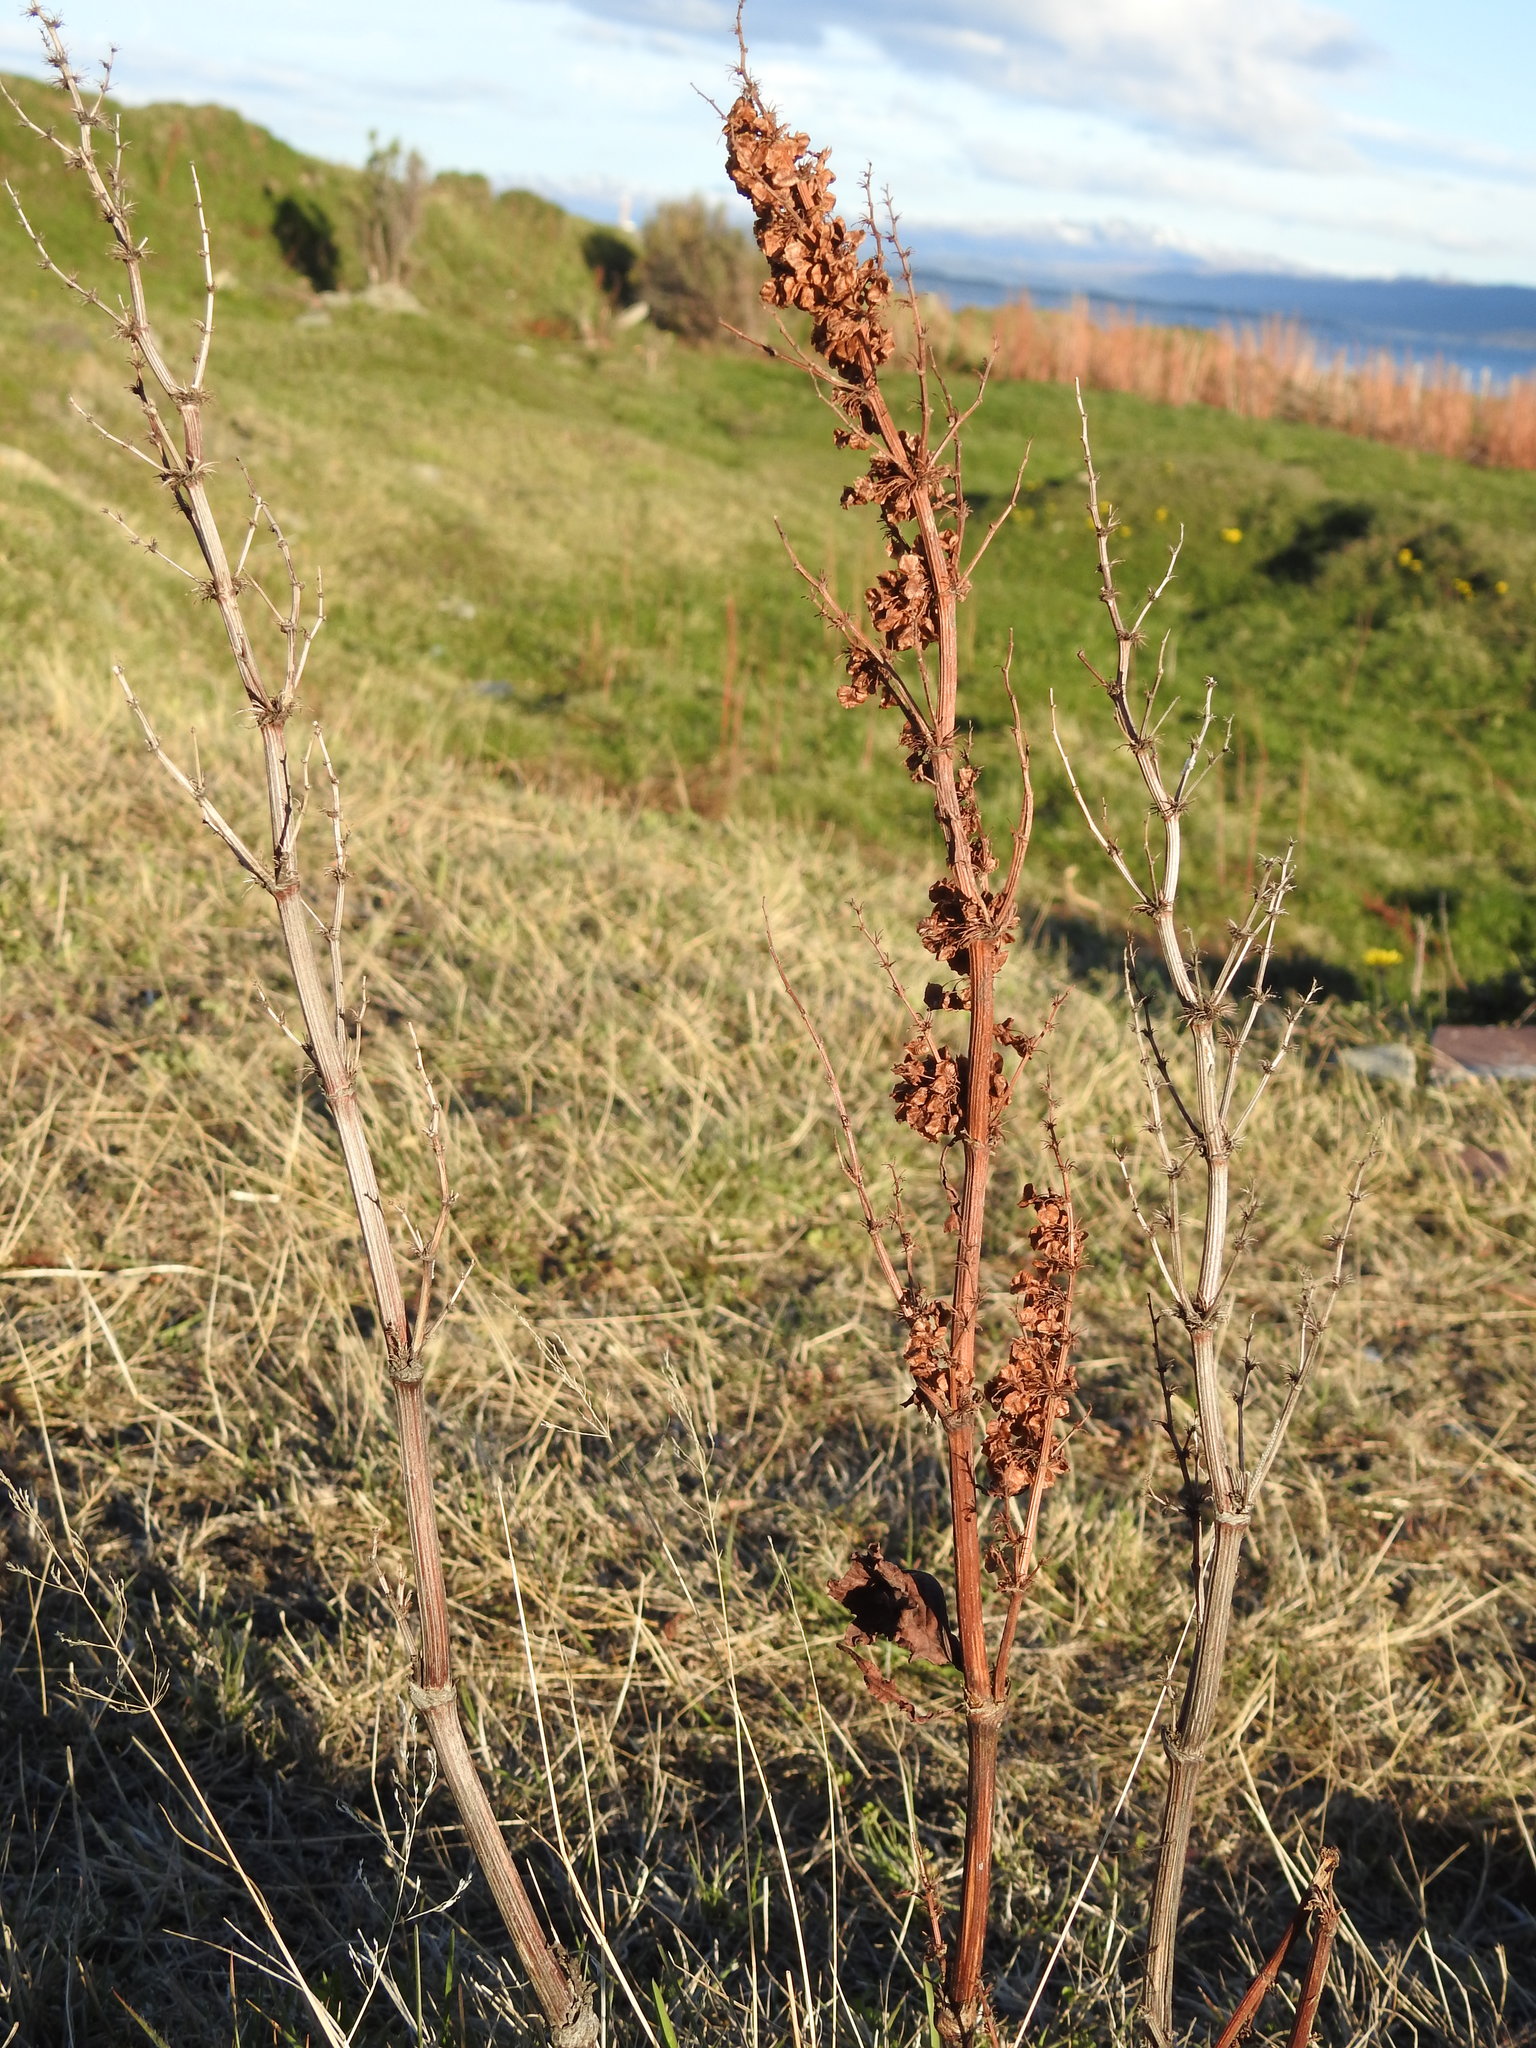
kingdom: Plantae
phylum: Tracheophyta
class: Magnoliopsida
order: Caryophyllales
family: Polygonaceae
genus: Rumex
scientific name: Rumex crispus
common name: Curled dock
